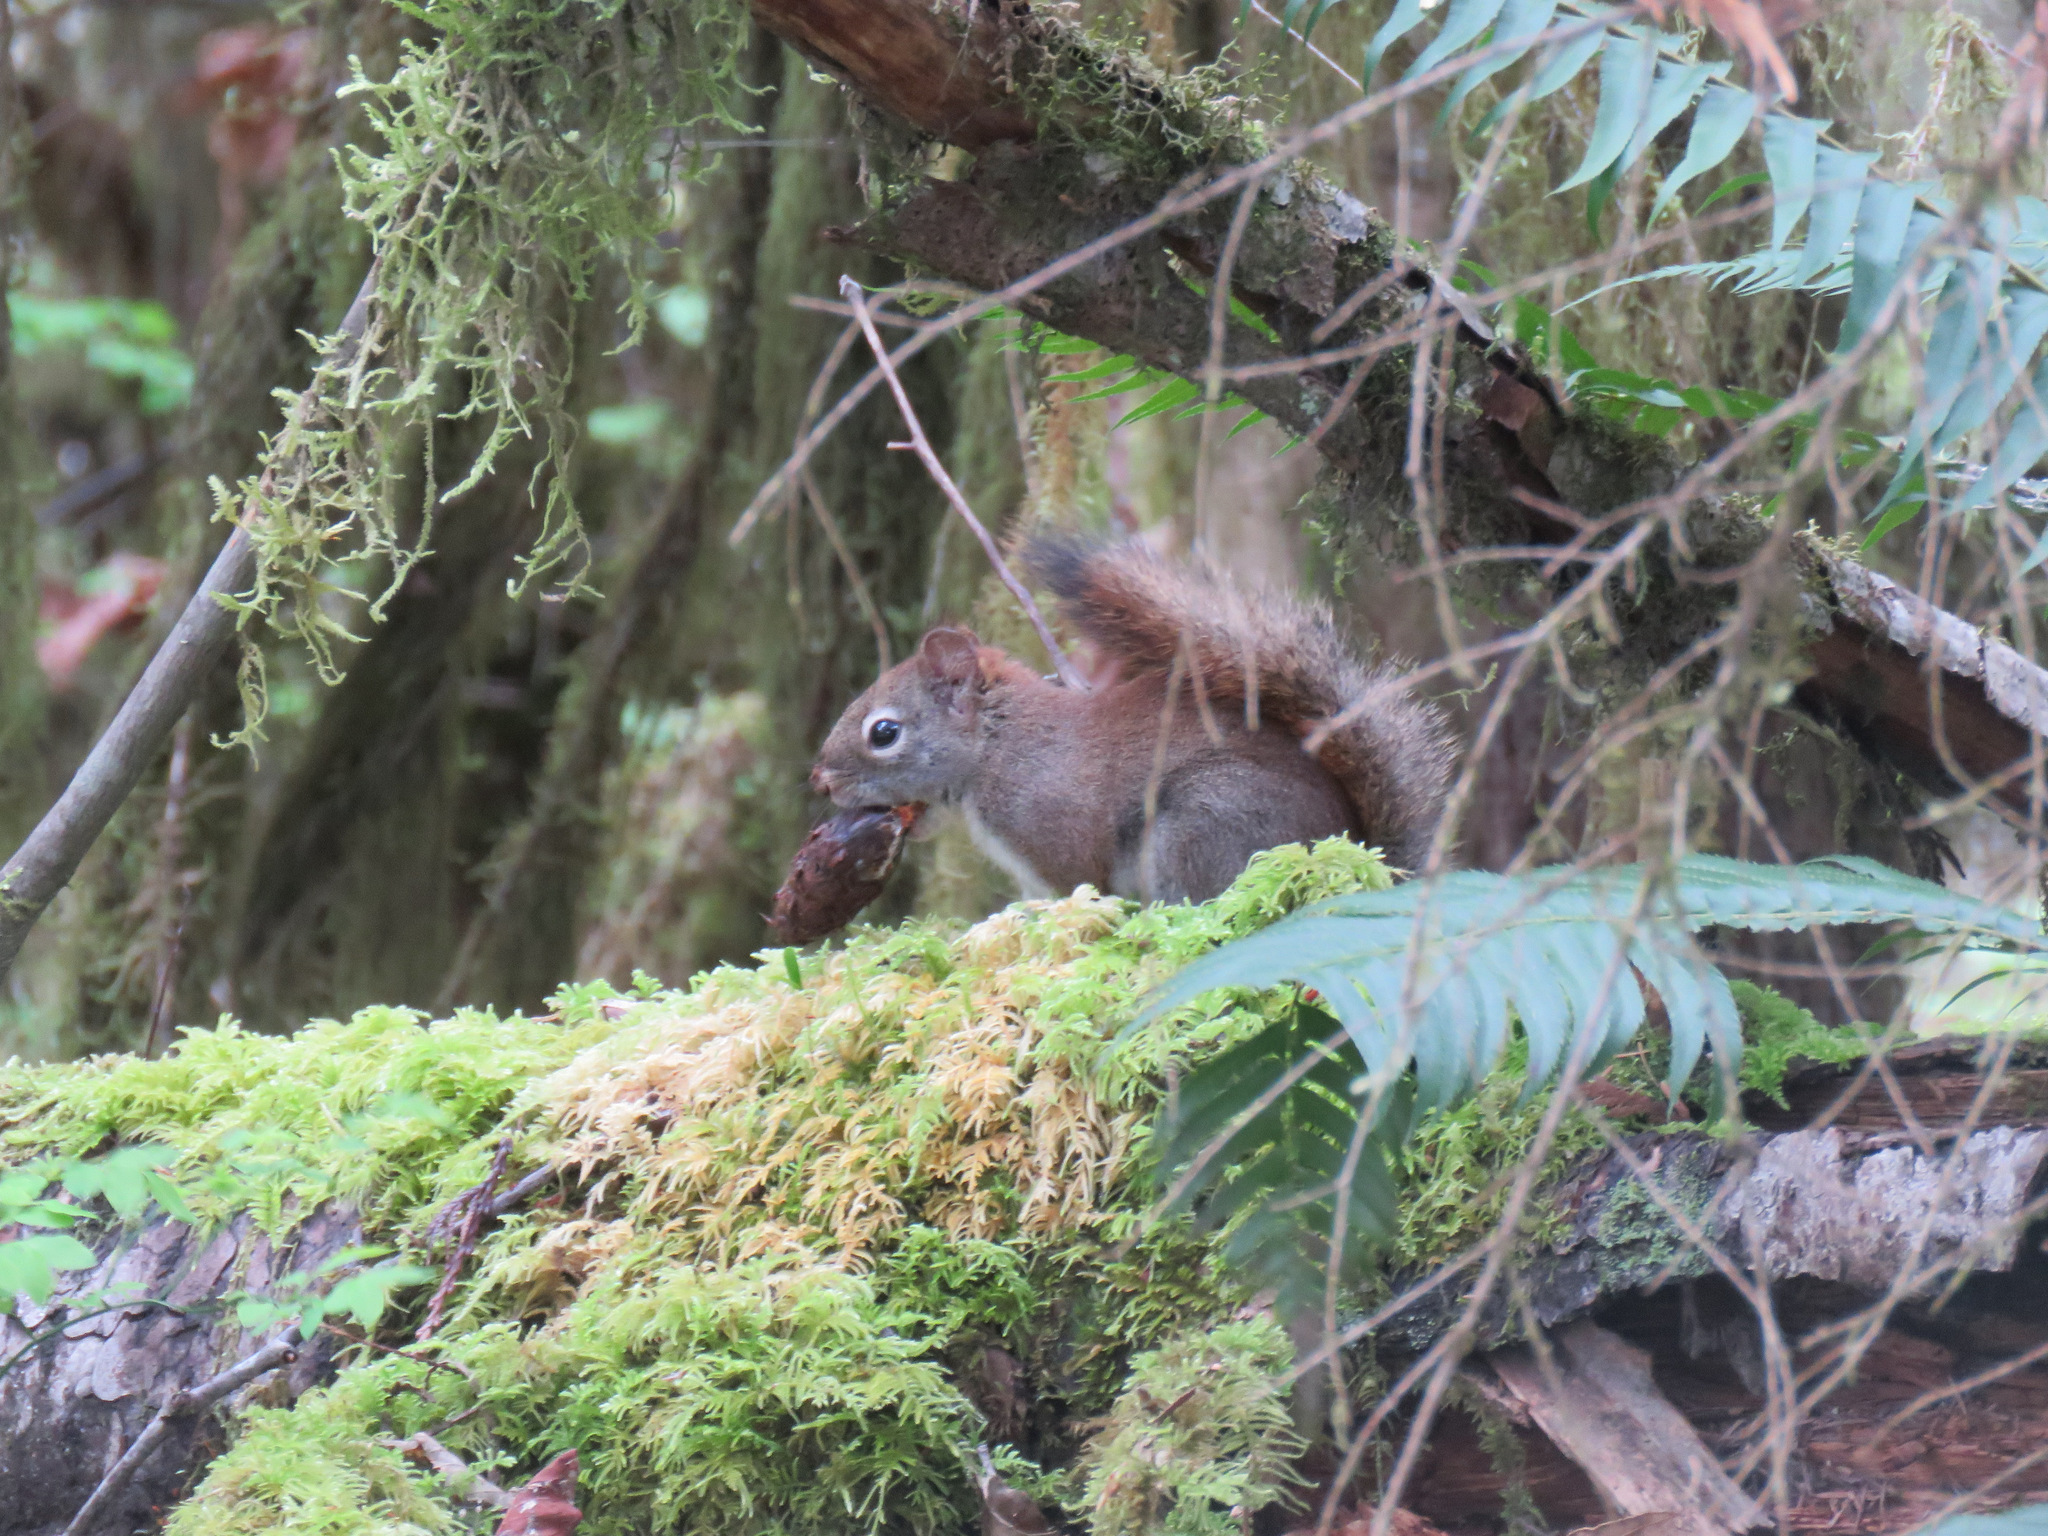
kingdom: Animalia
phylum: Chordata
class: Mammalia
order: Rodentia
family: Sciuridae
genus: Tamiasciurus
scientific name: Tamiasciurus hudsonicus
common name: Red squirrel
